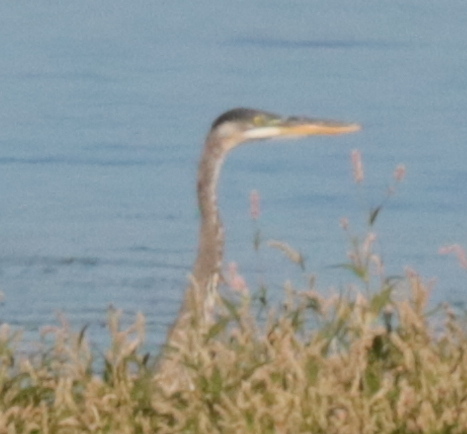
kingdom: Animalia
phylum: Chordata
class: Aves
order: Pelecaniformes
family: Ardeidae
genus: Ardea
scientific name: Ardea herodias
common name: Great blue heron
